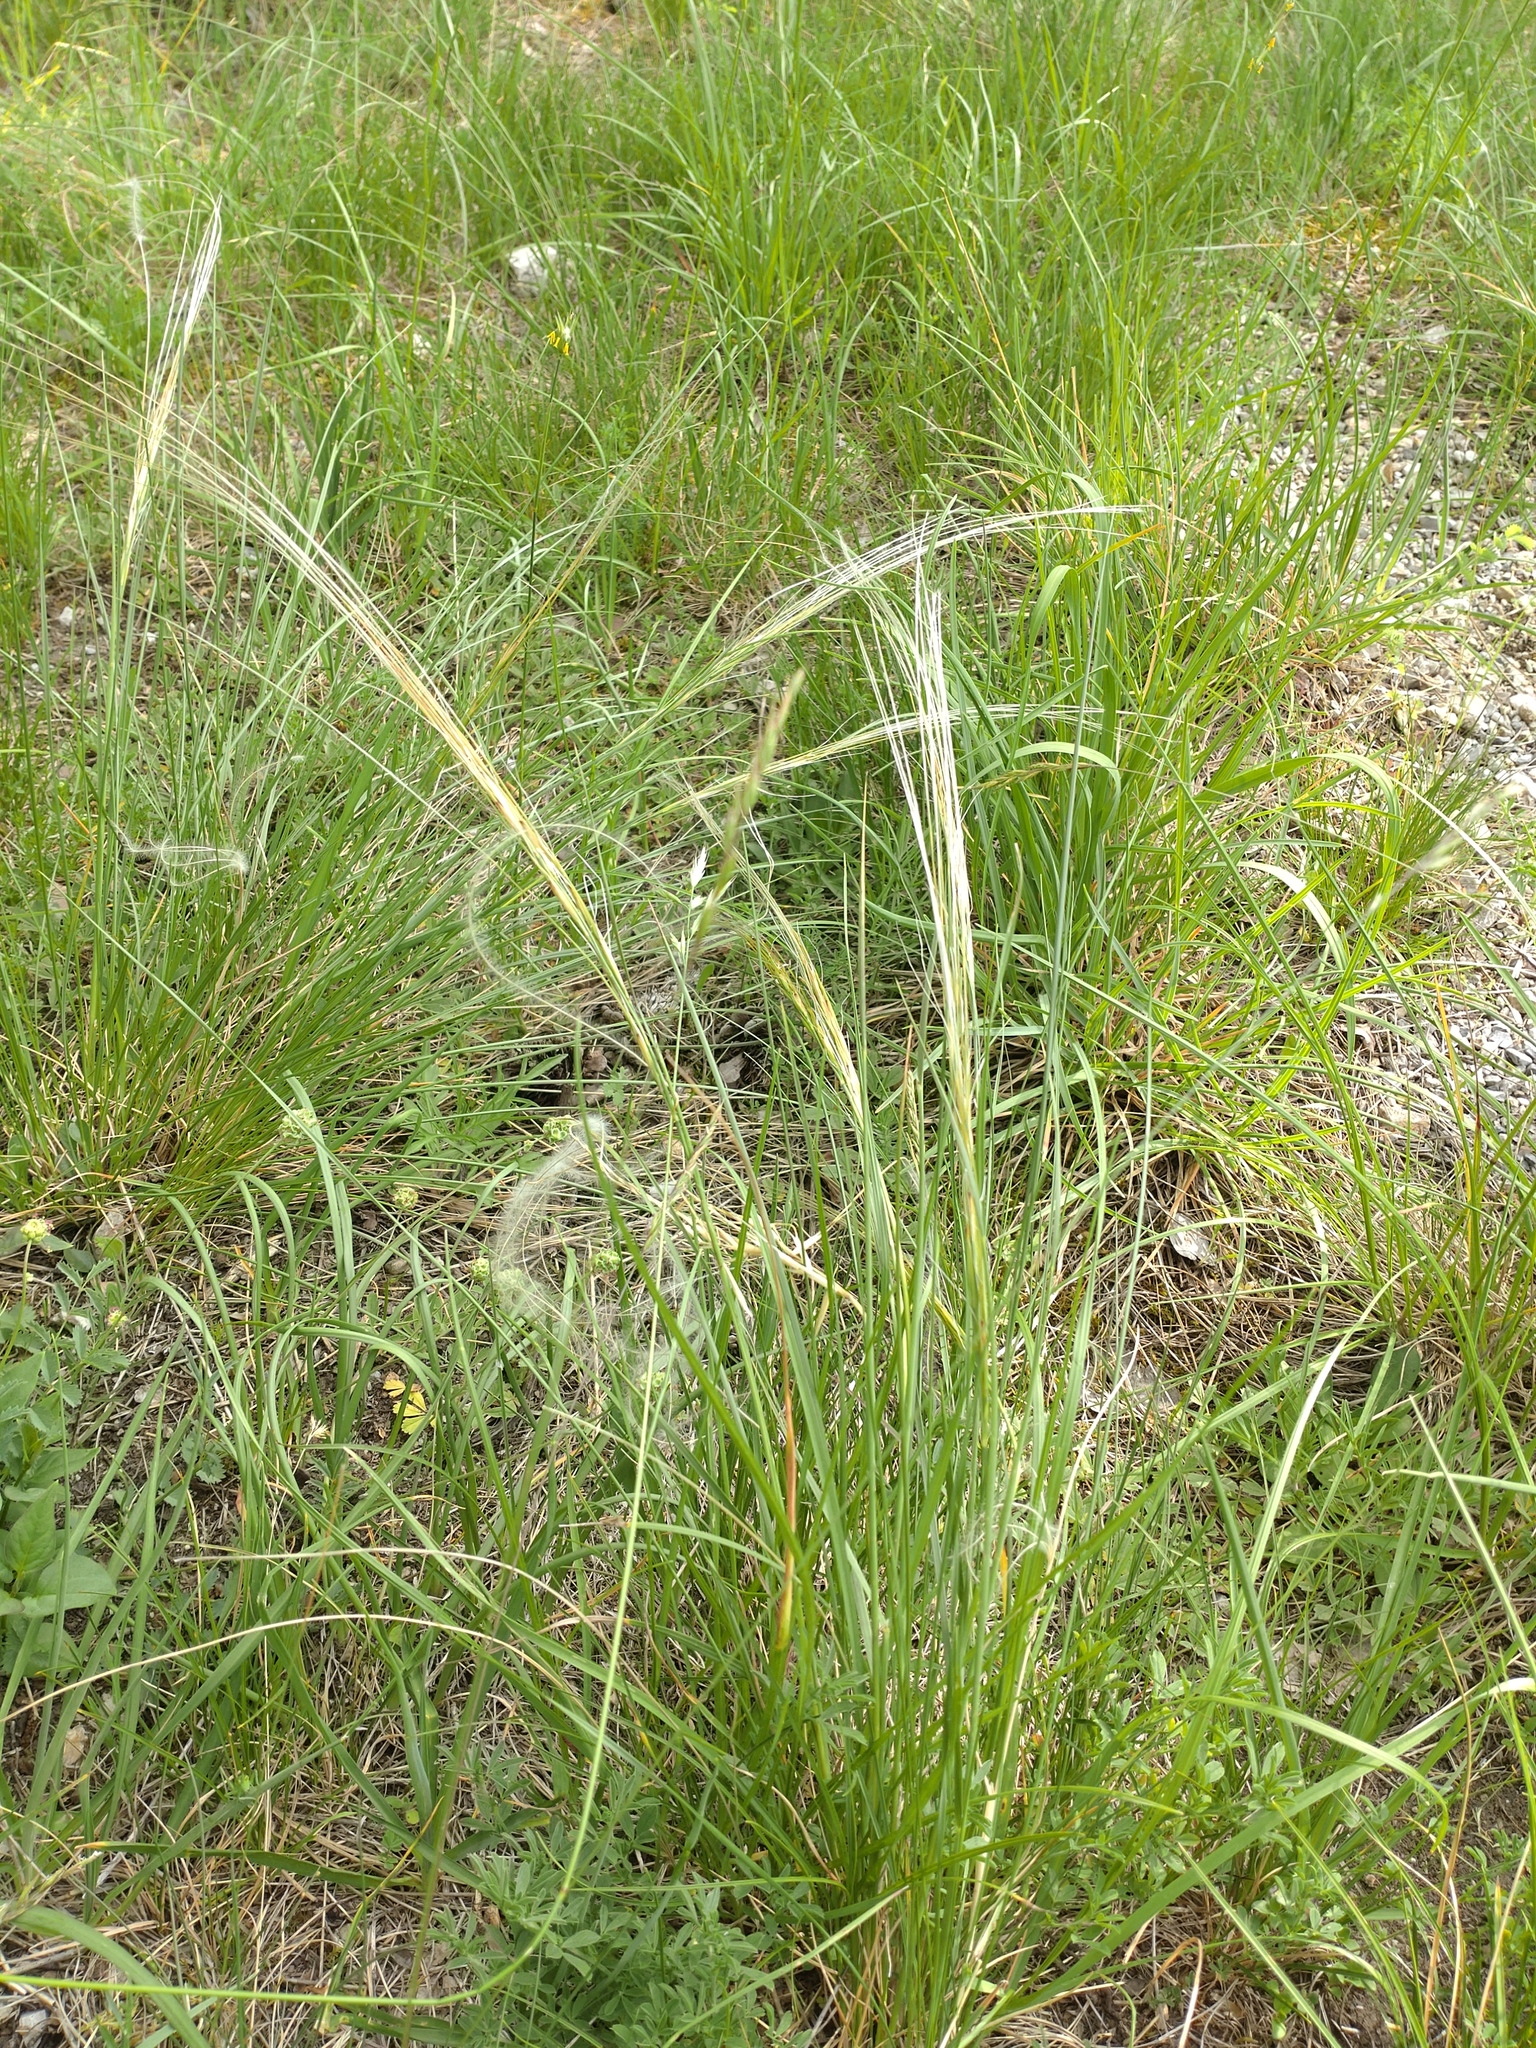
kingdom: Plantae
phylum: Tracheophyta
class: Liliopsida
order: Poales
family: Poaceae
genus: Stipa
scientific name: Stipa pennata
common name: European feather grass
